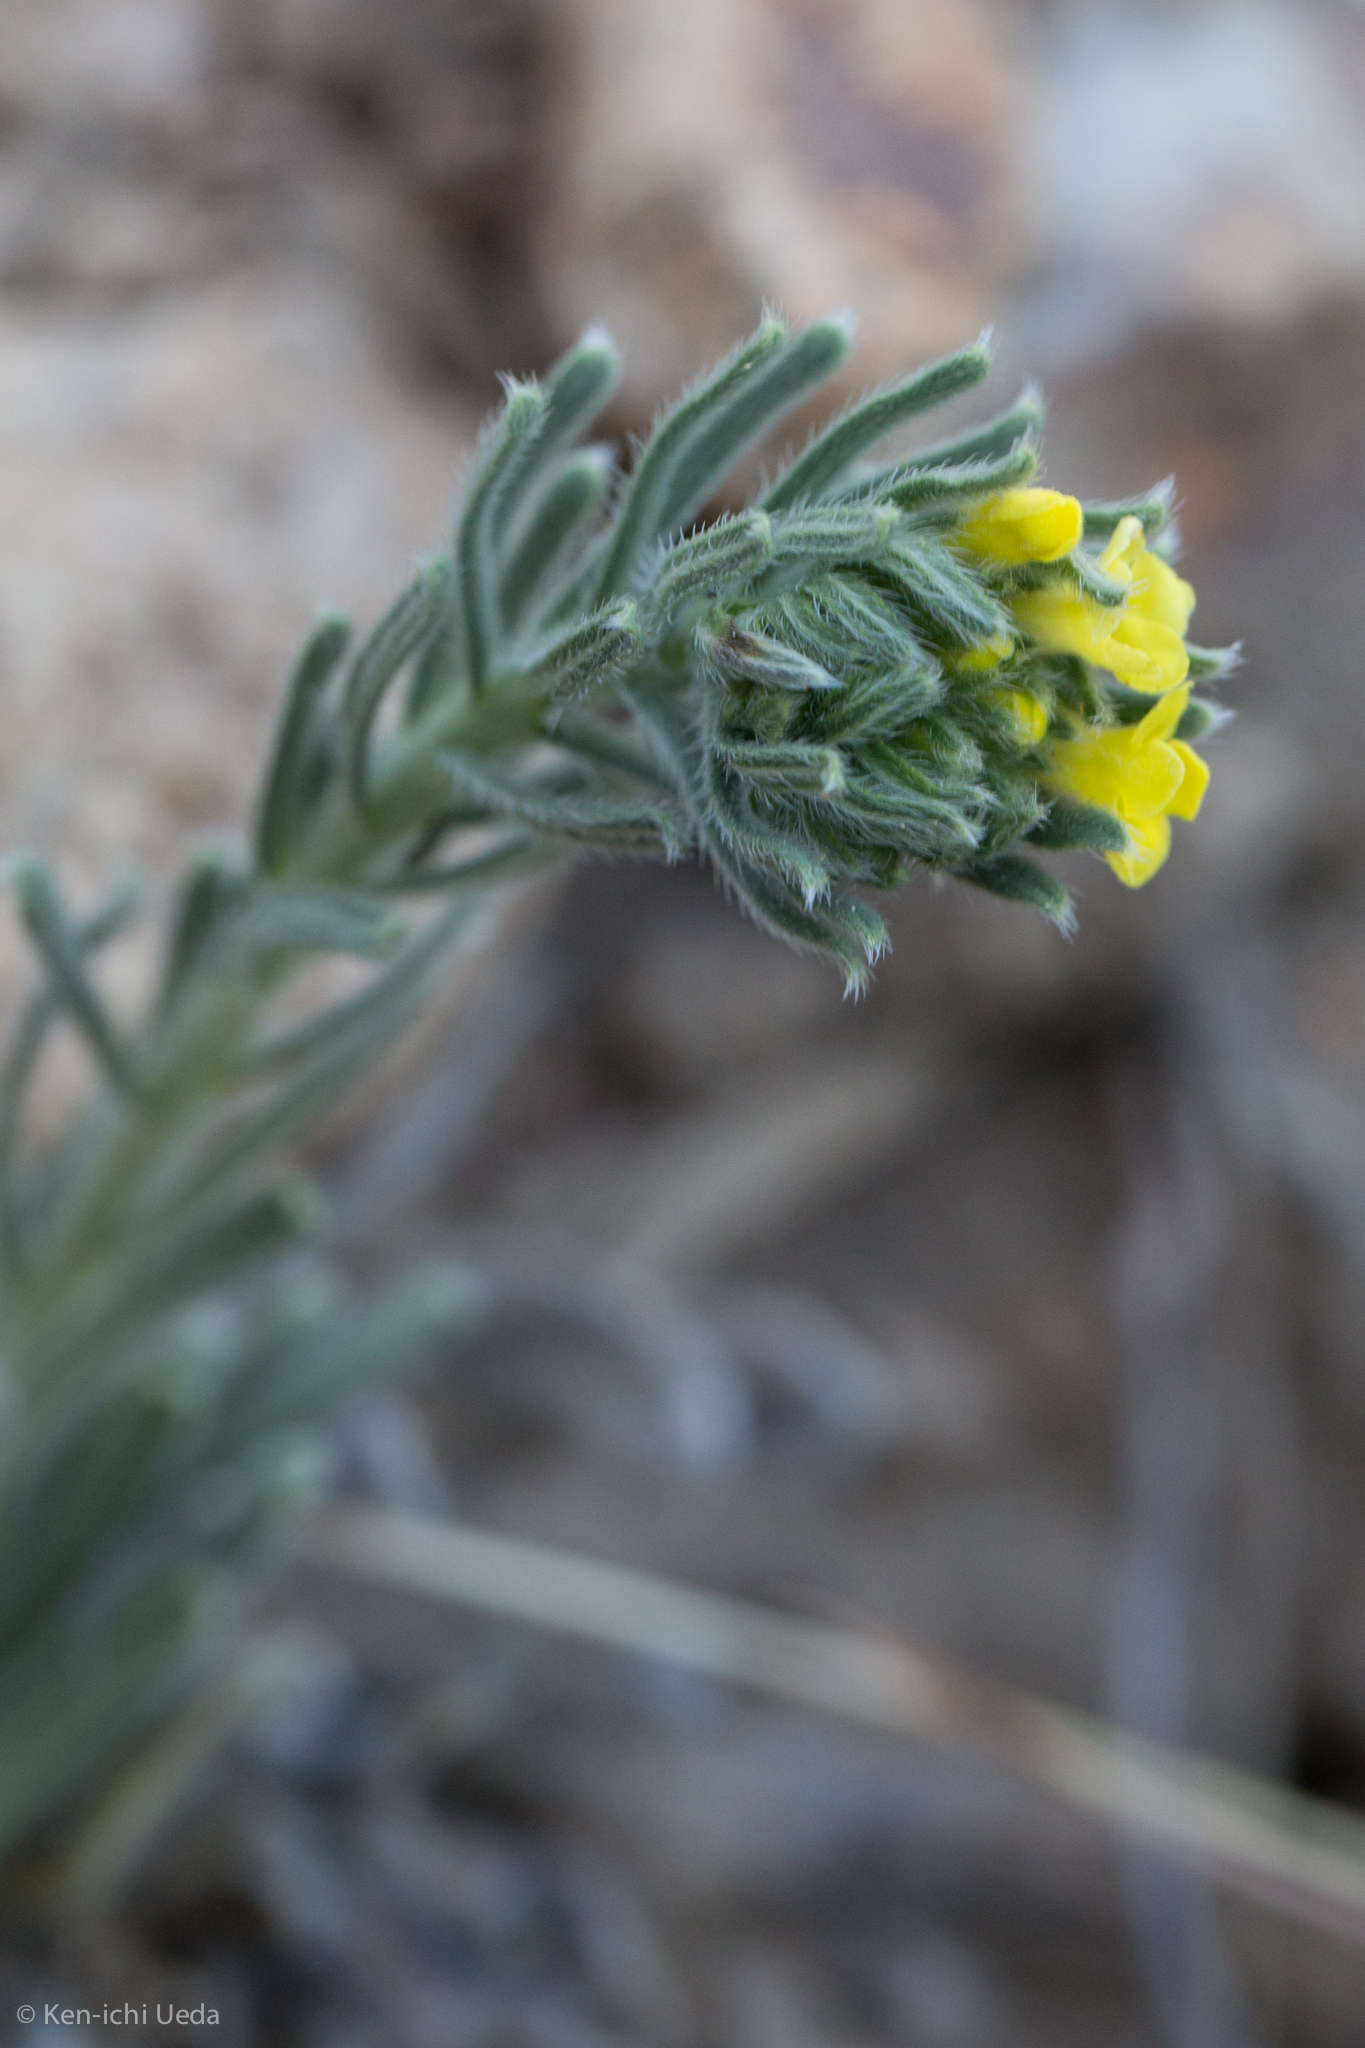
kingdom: Plantae
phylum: Tracheophyta
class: Magnoliopsida
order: Boraginales
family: Boraginaceae
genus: Lithospermum
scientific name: Lithospermum cobrense
